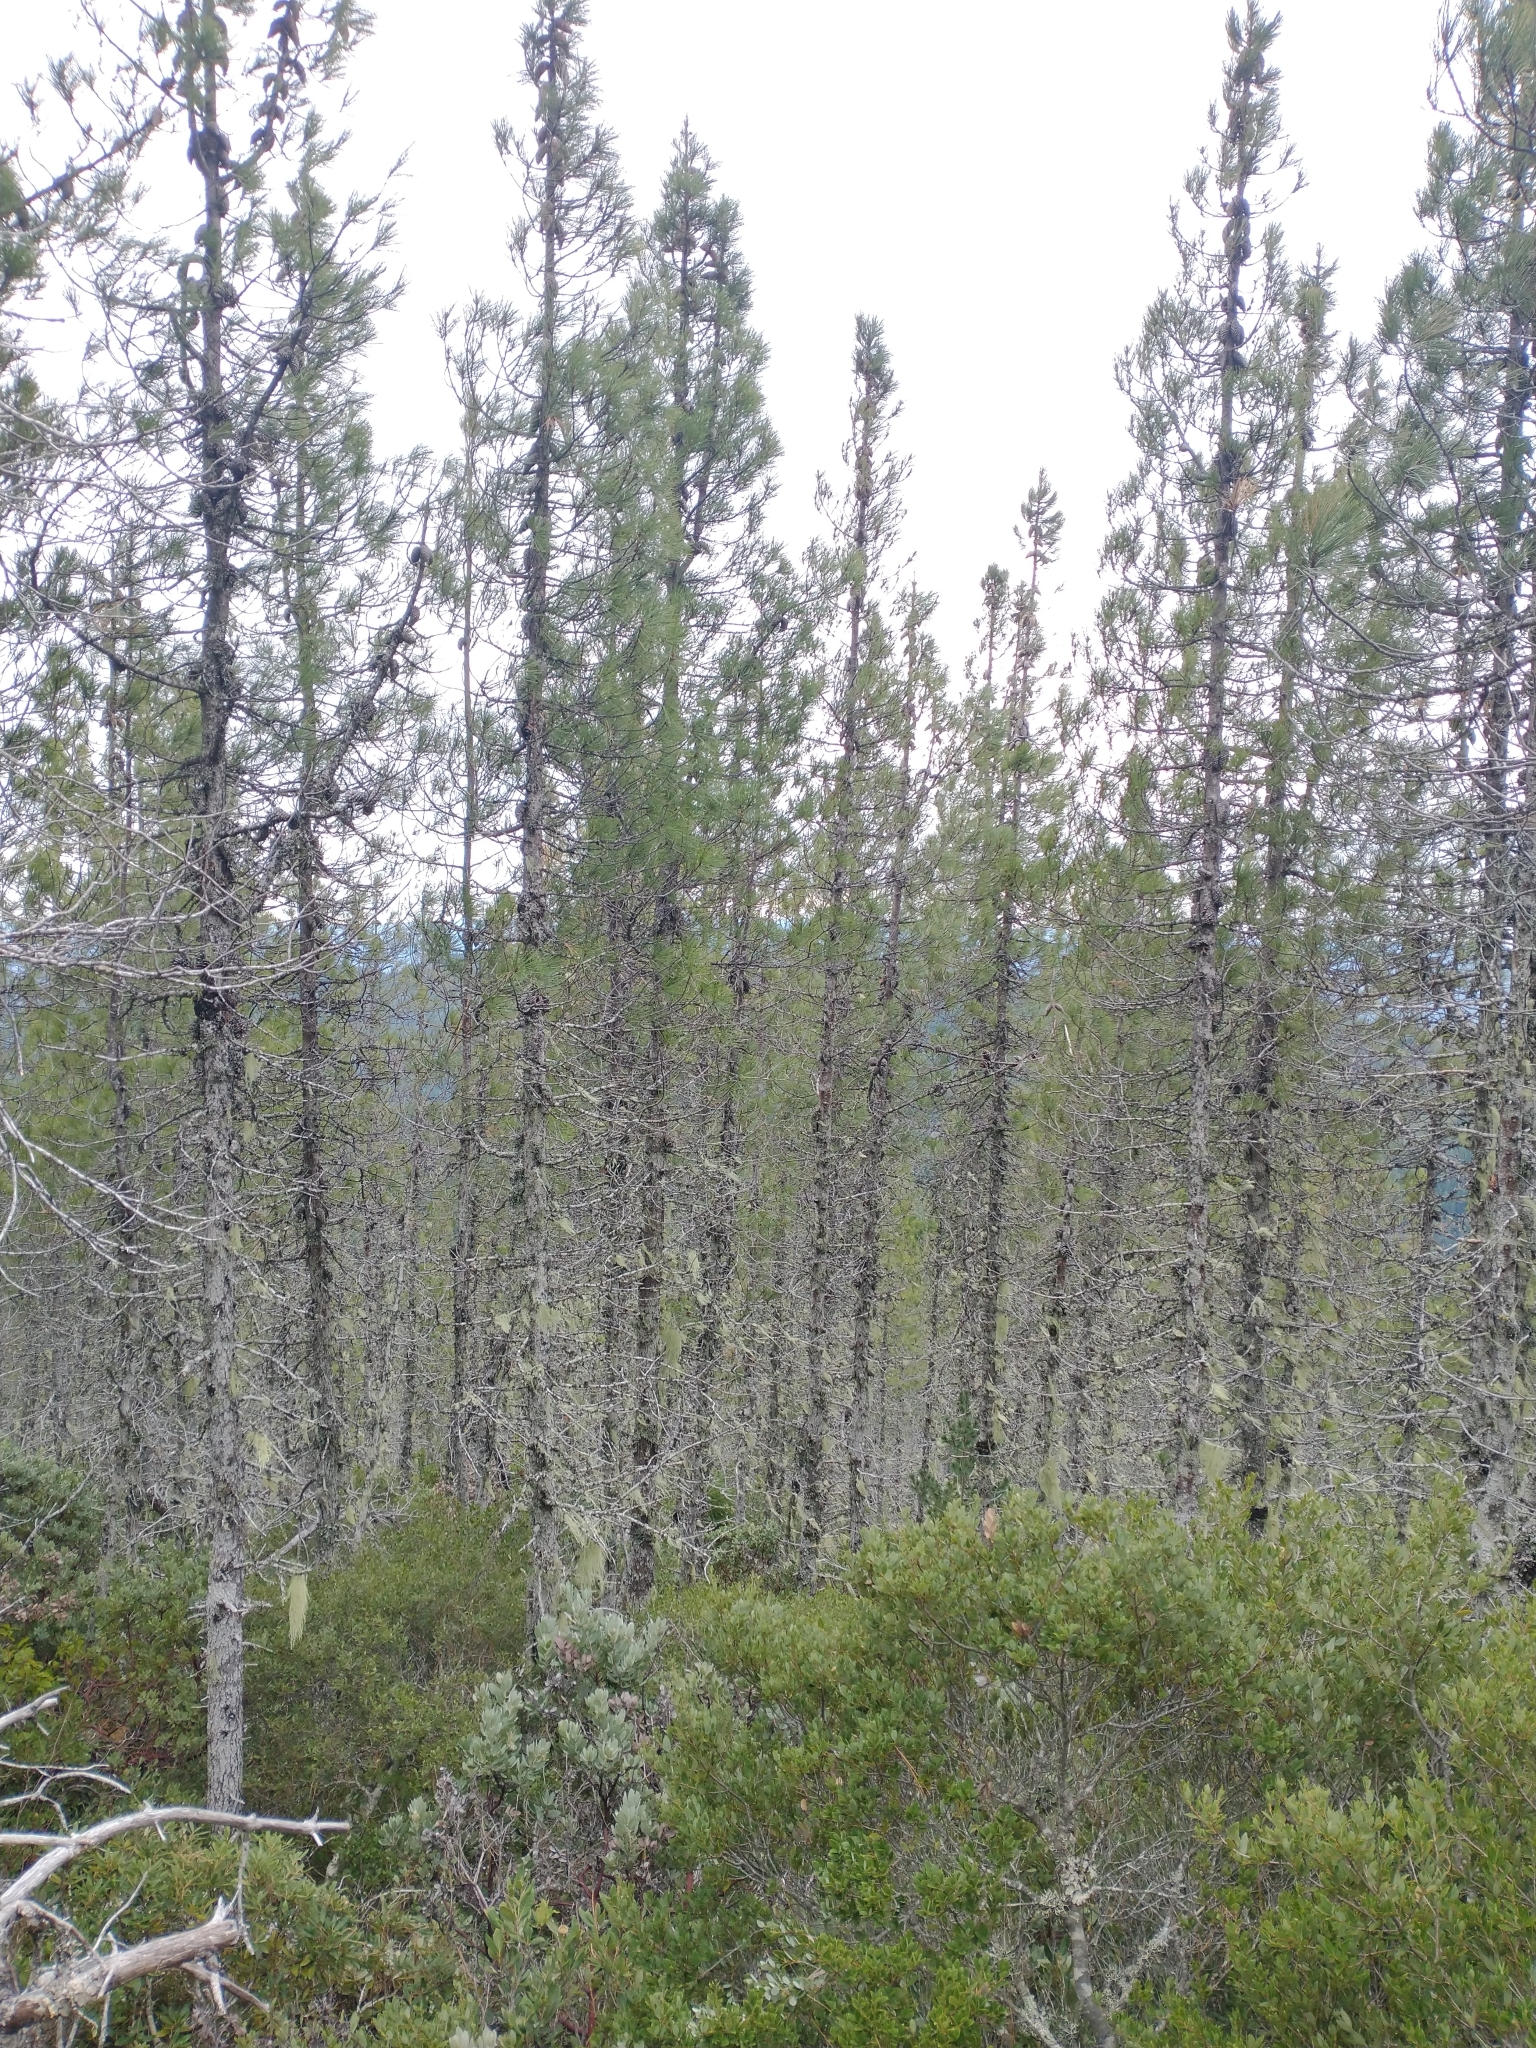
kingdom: Plantae
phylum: Tracheophyta
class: Pinopsida
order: Pinales
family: Pinaceae
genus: Pinus
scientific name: Pinus attenuata
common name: Knobcone pine
